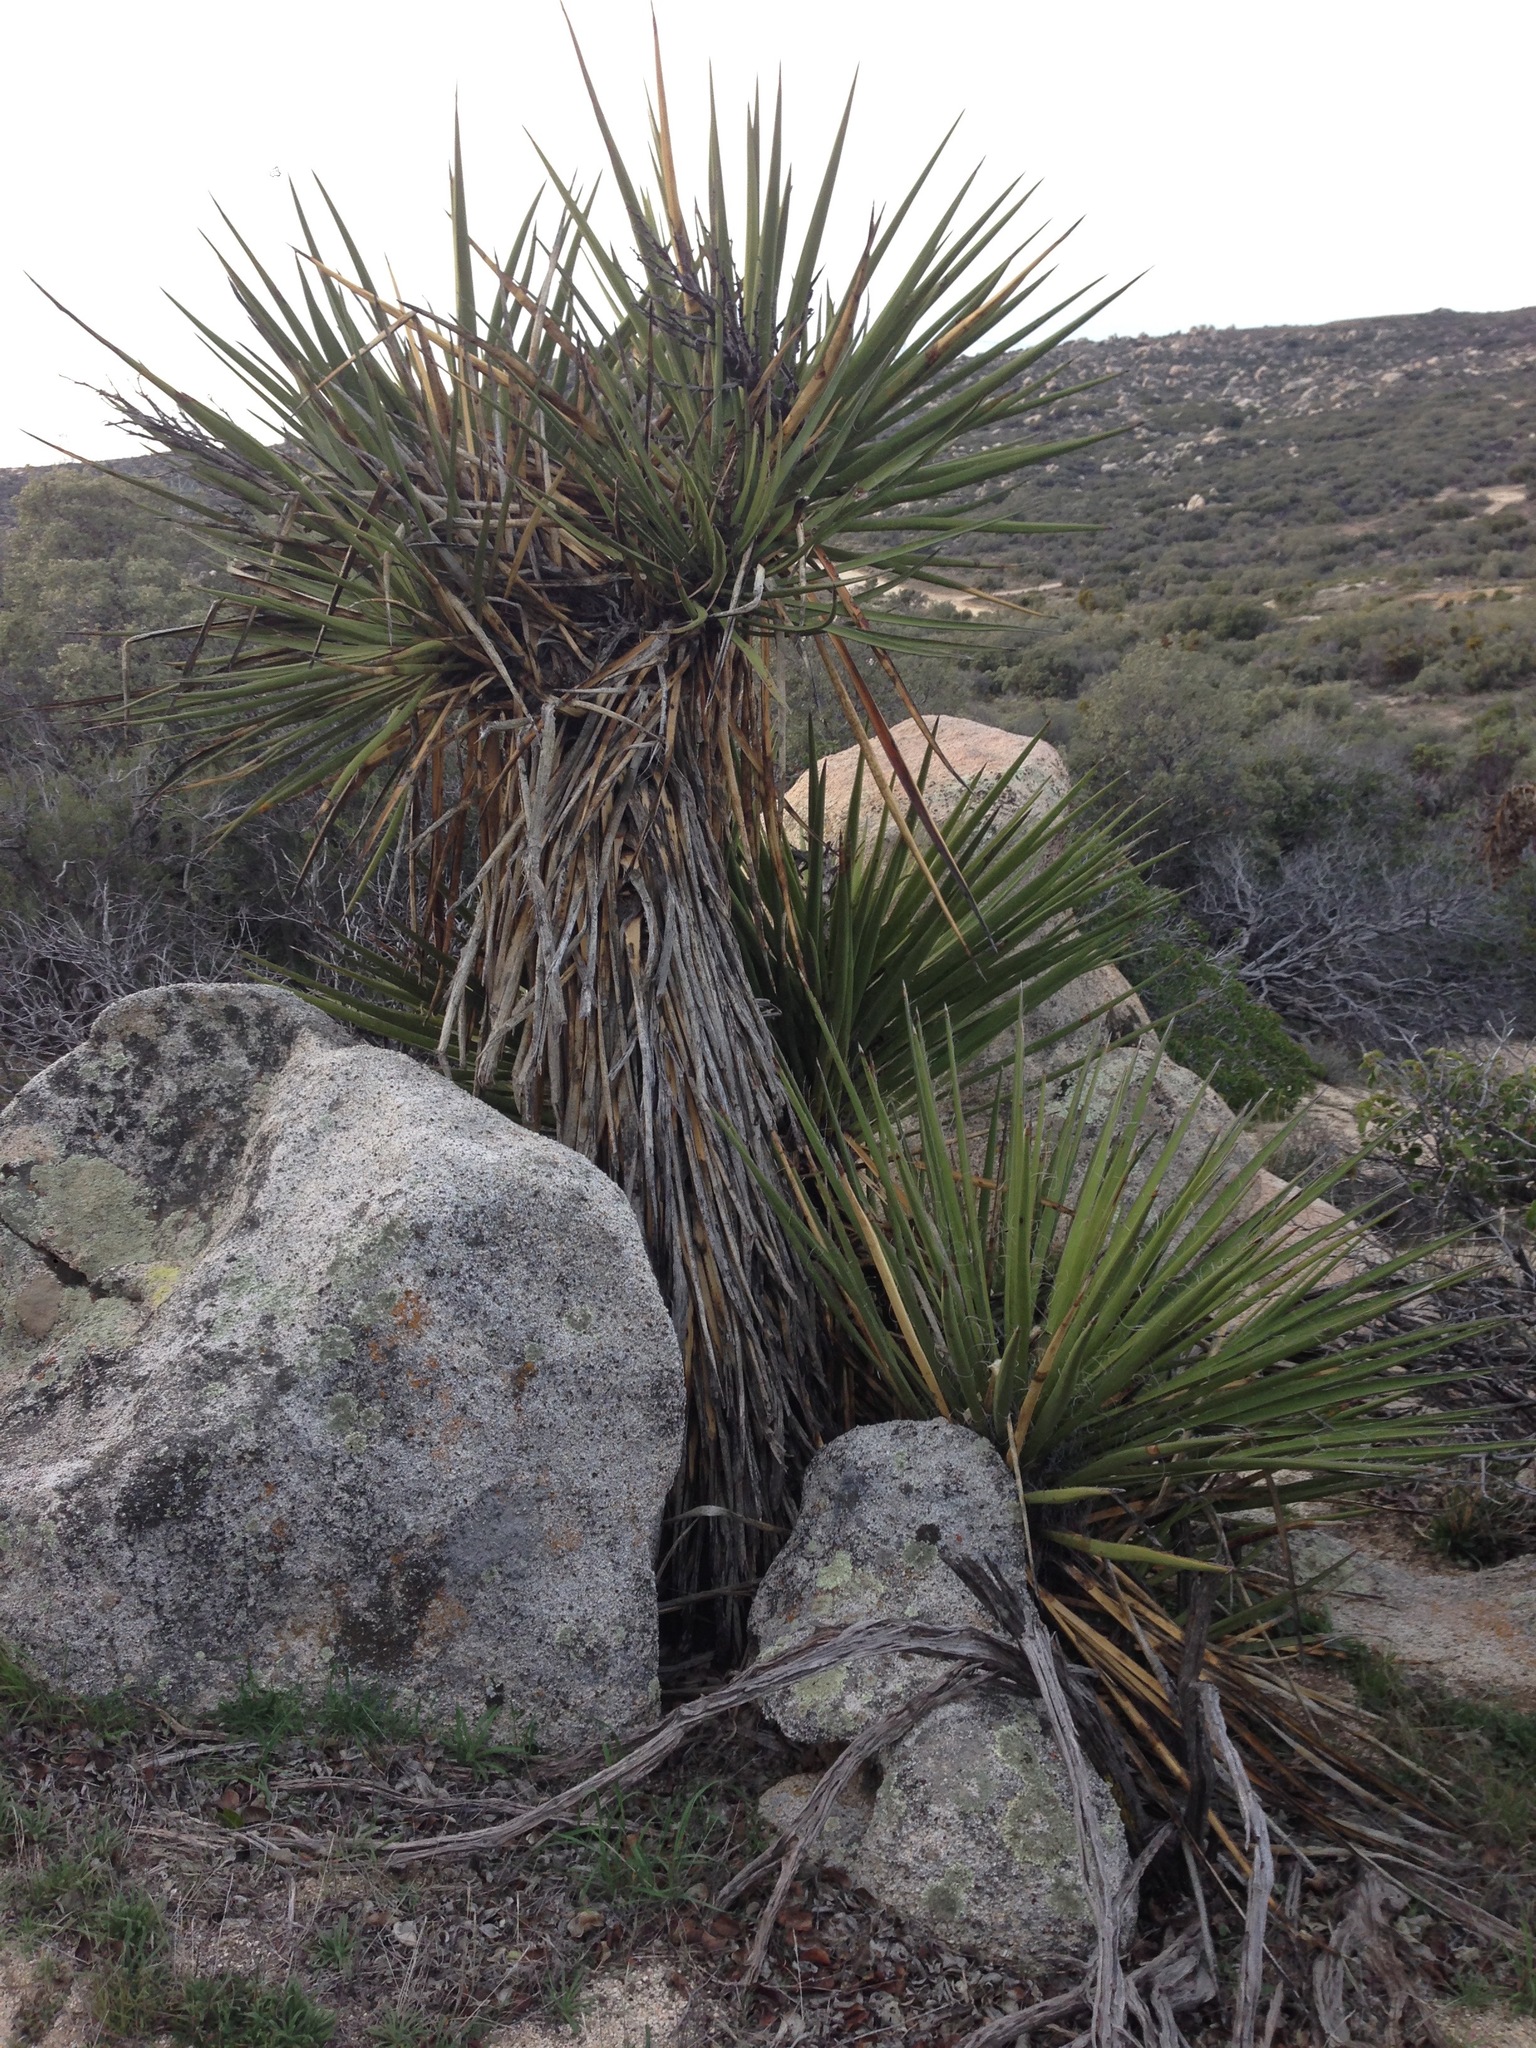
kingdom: Plantae
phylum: Tracheophyta
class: Liliopsida
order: Asparagales
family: Asparagaceae
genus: Yucca
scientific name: Yucca schidigera
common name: Mojave yucca
